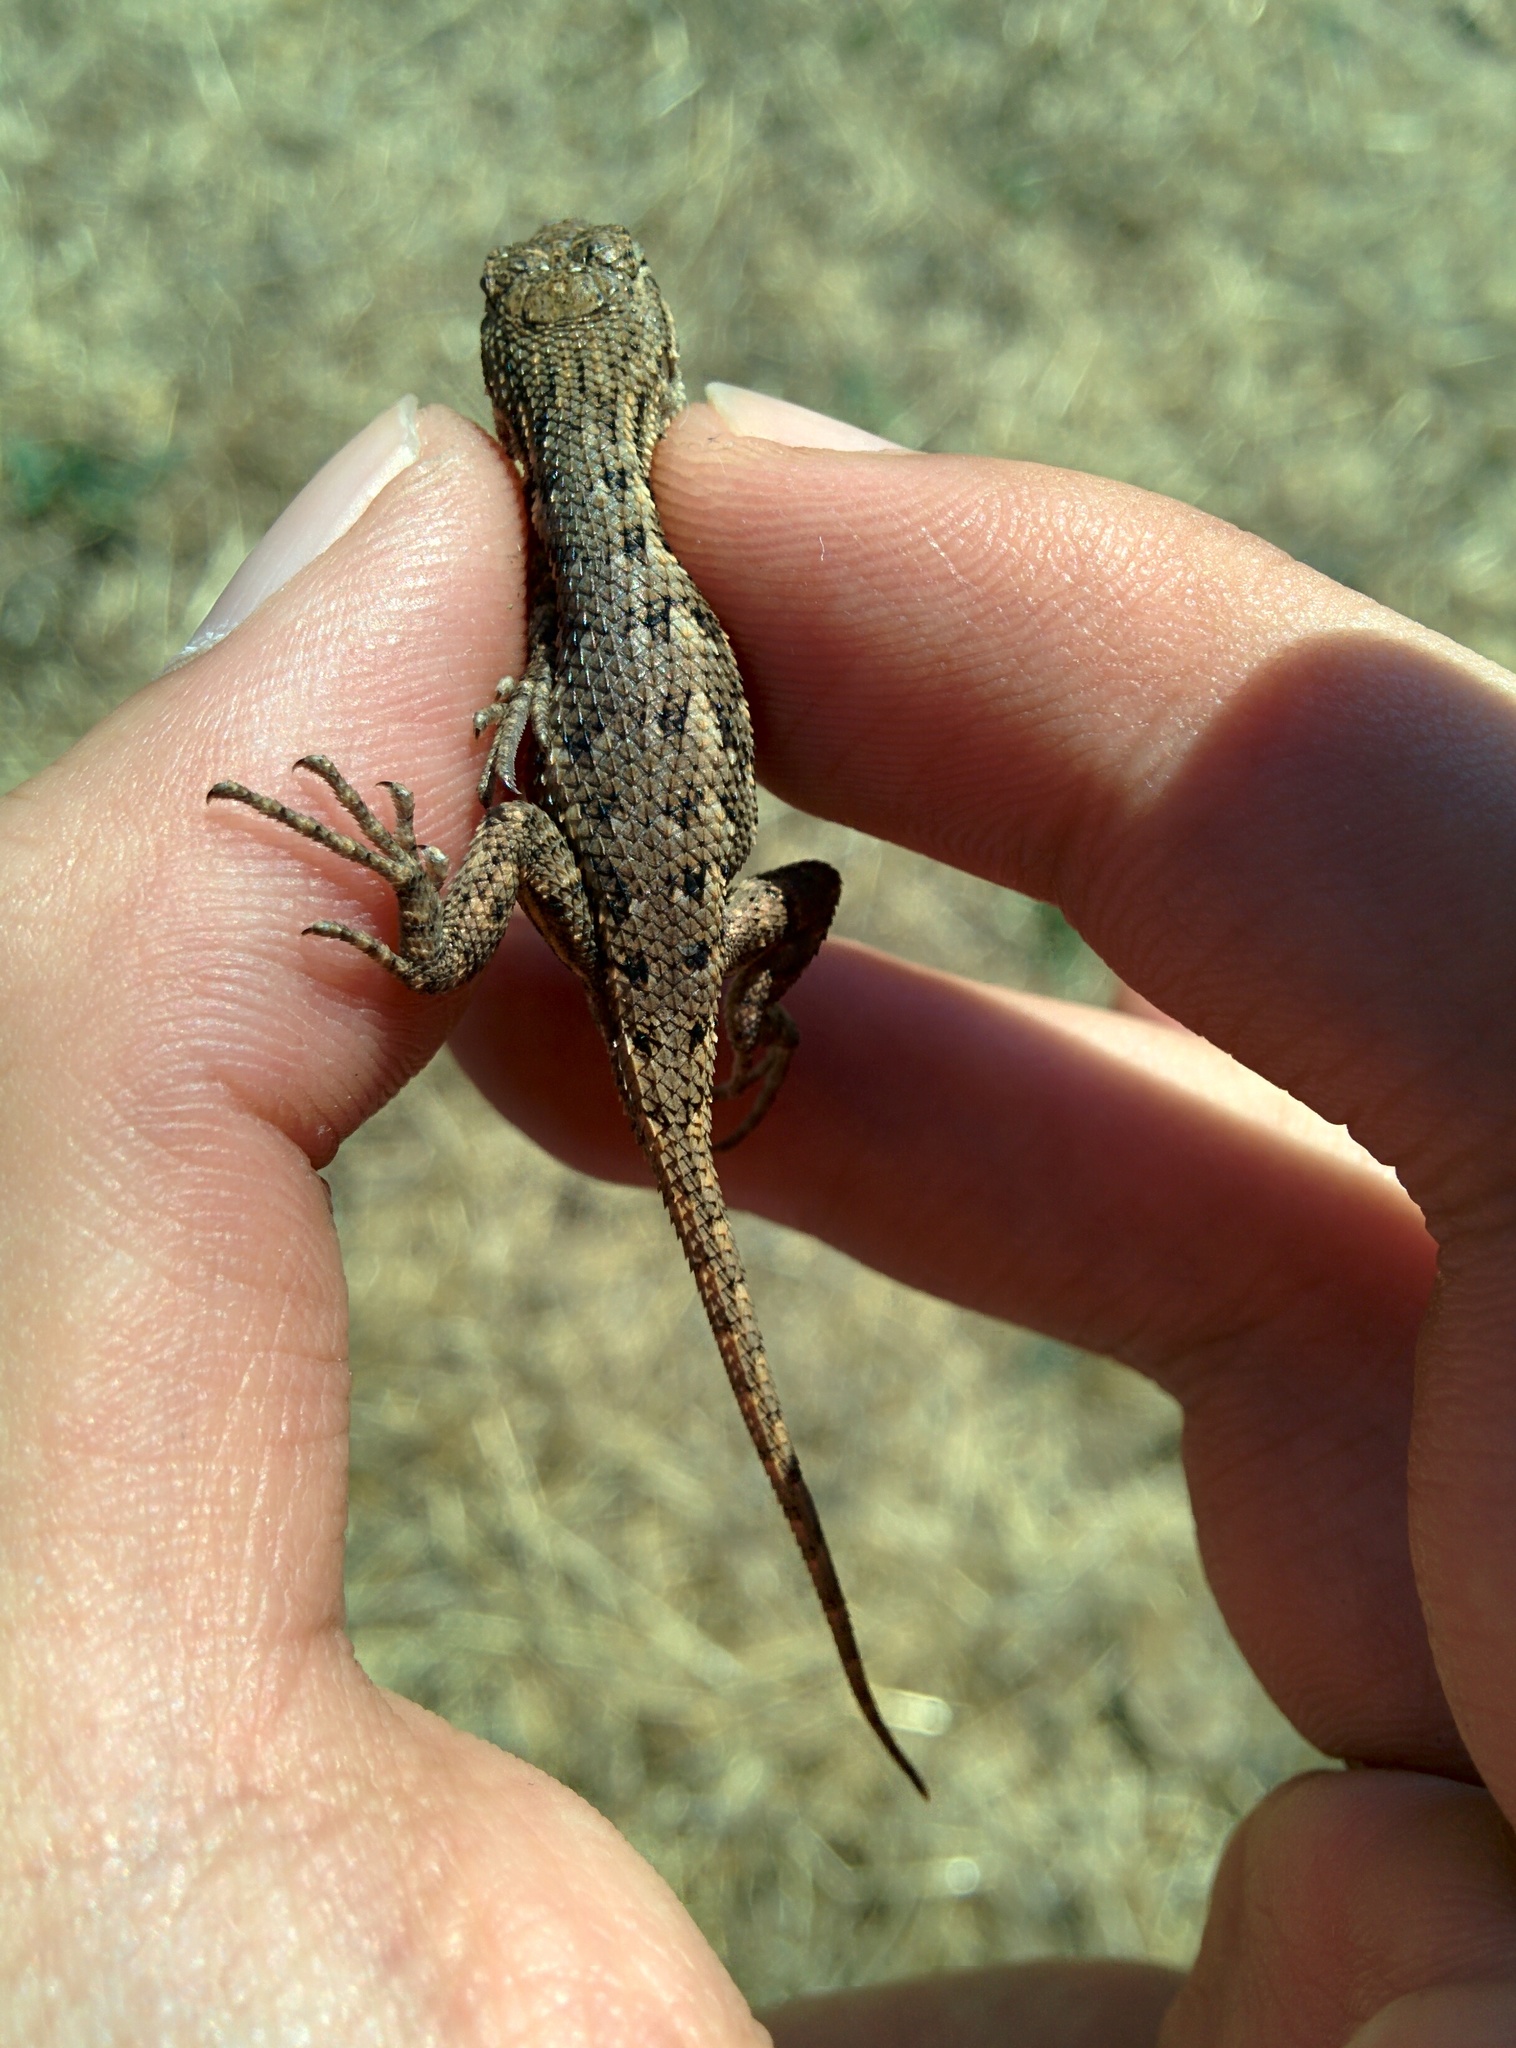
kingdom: Animalia
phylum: Chordata
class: Squamata
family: Phrynosomatidae
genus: Sceloporus
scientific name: Sceloporus occidentalis
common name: Western fence lizard
